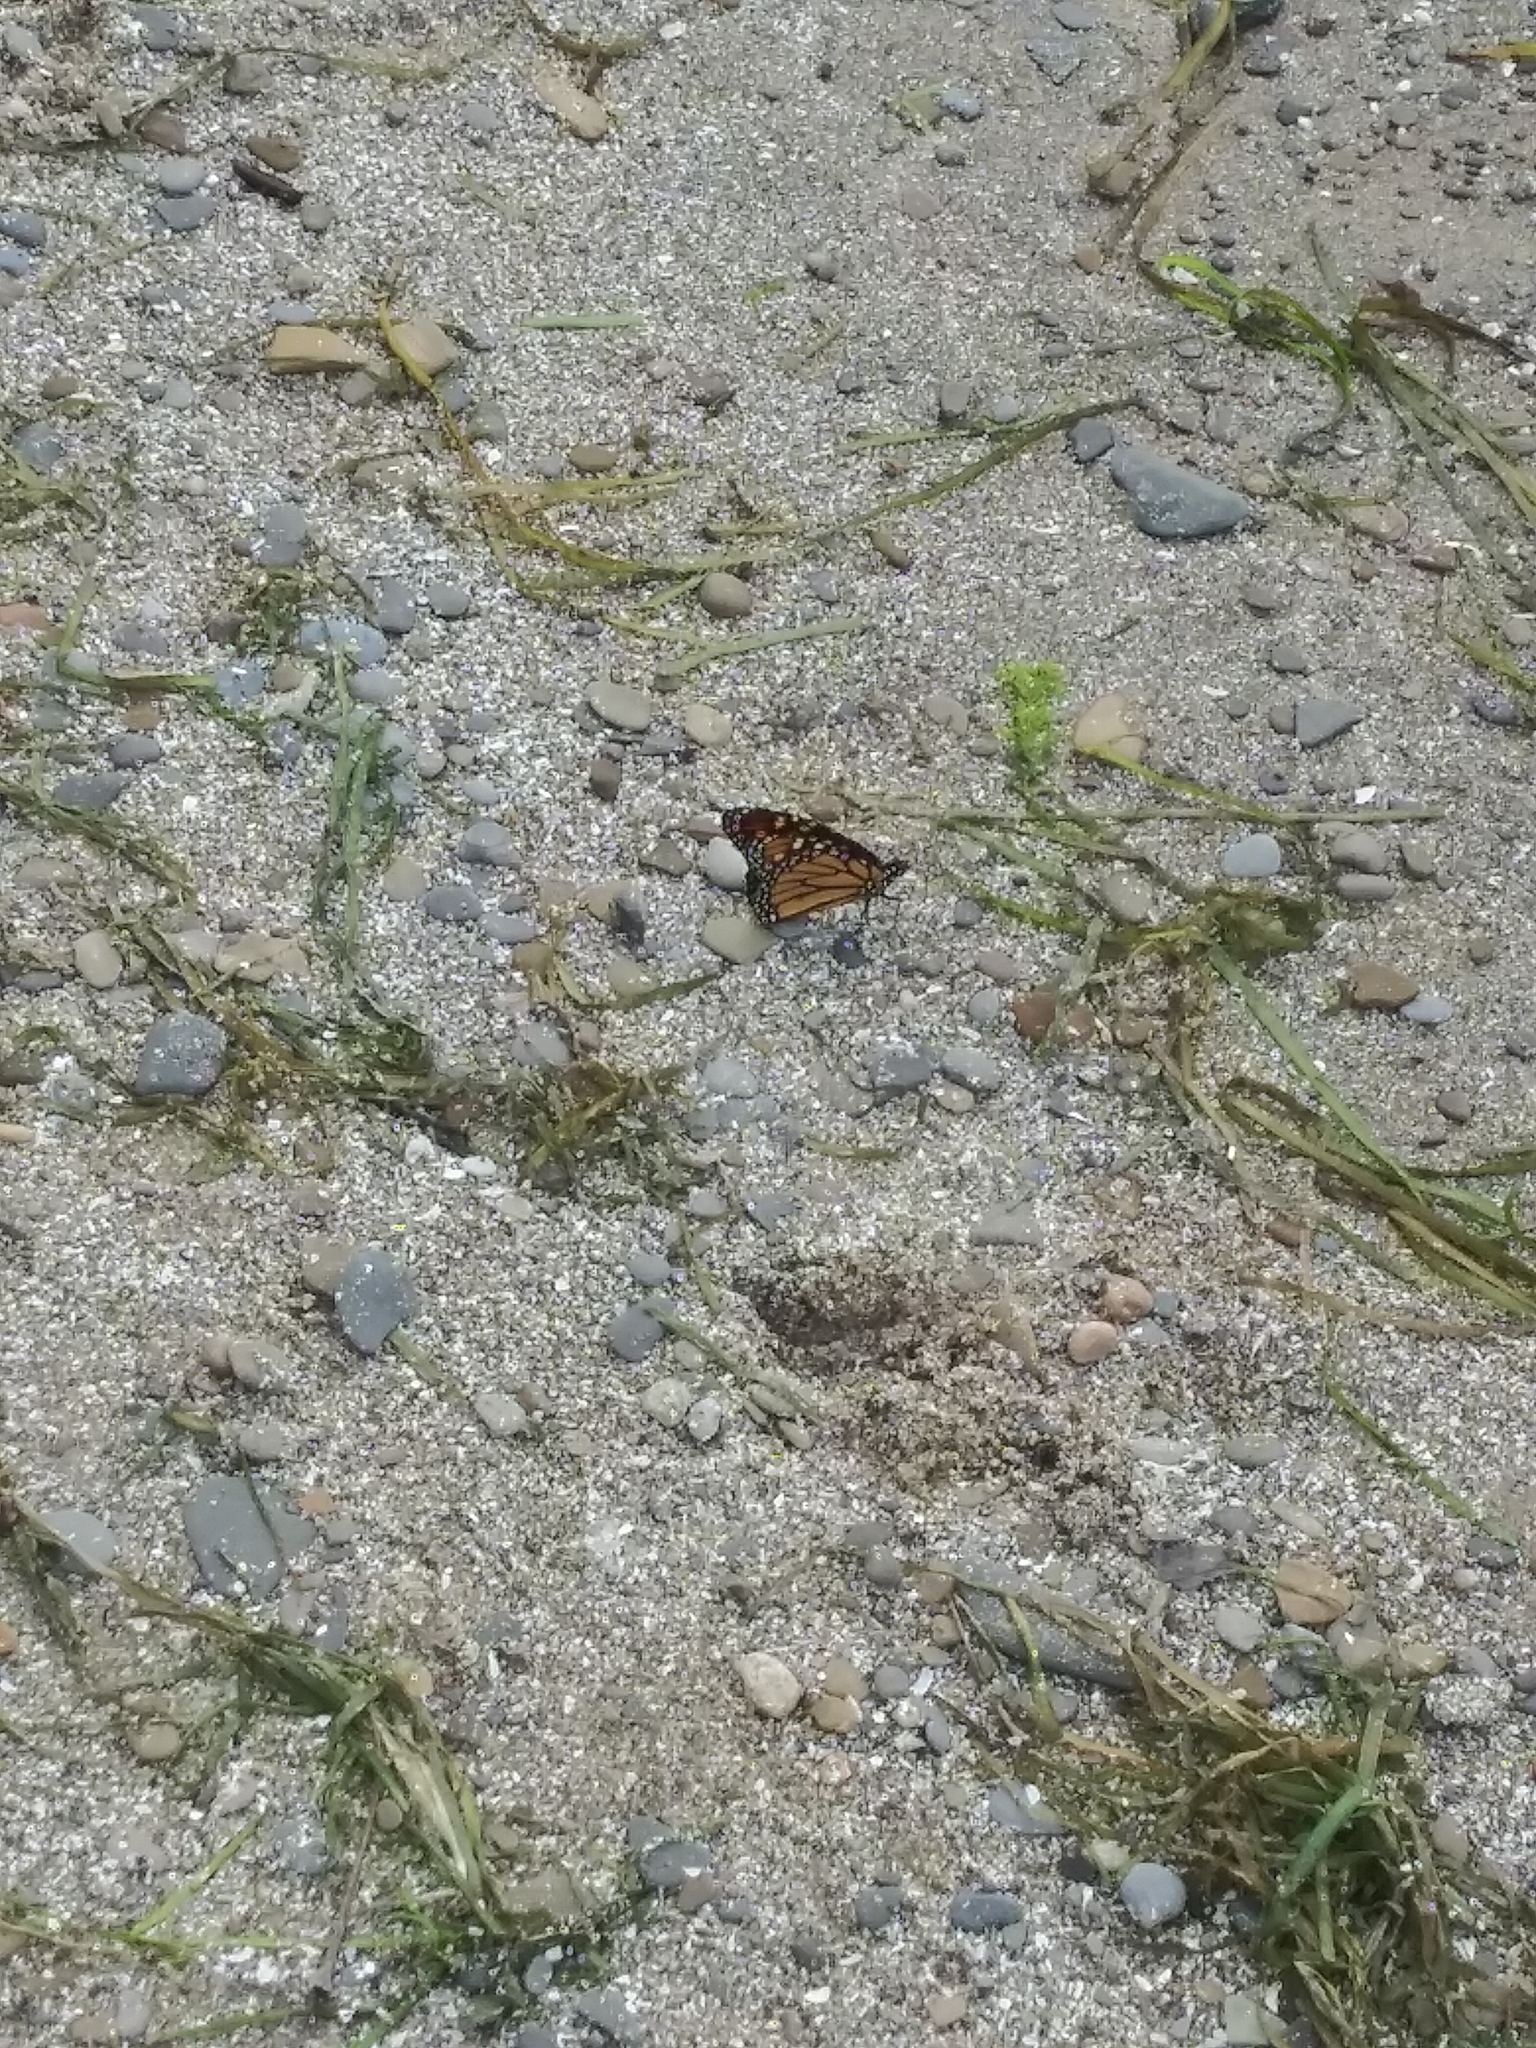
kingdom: Animalia
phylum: Arthropoda
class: Insecta
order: Lepidoptera
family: Nymphalidae
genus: Danaus
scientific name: Danaus plexippus
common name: Monarch
